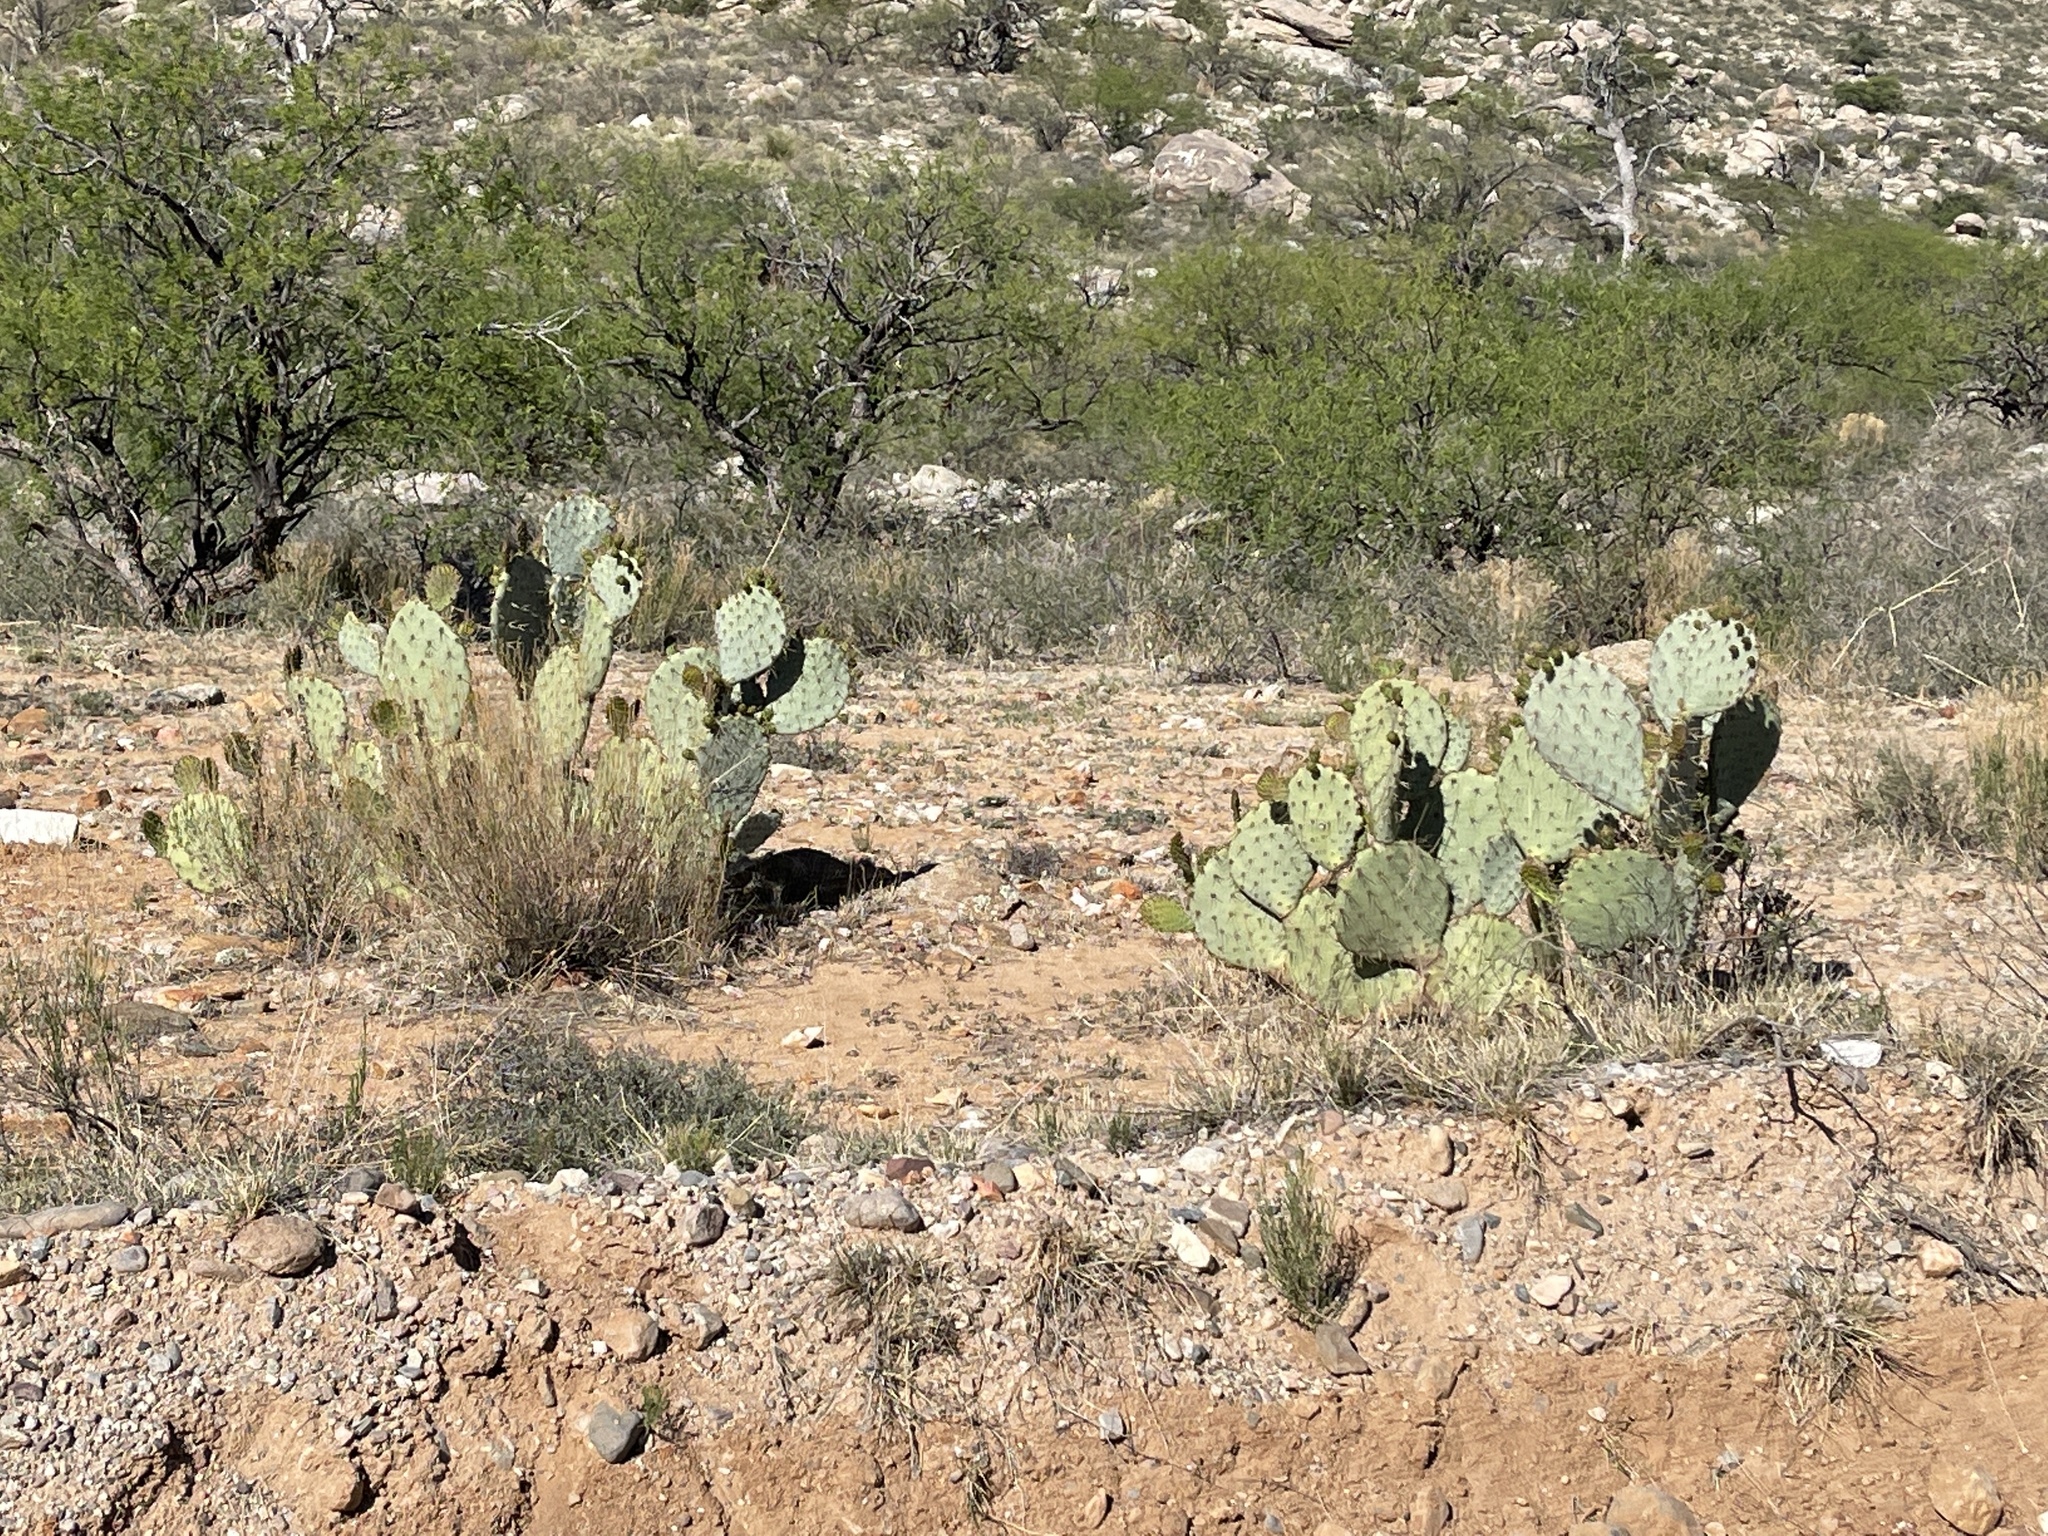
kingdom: Plantae
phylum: Tracheophyta
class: Magnoliopsida
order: Caryophyllales
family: Cactaceae
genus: Opuntia
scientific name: Opuntia engelmannii
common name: Cactus-apple
